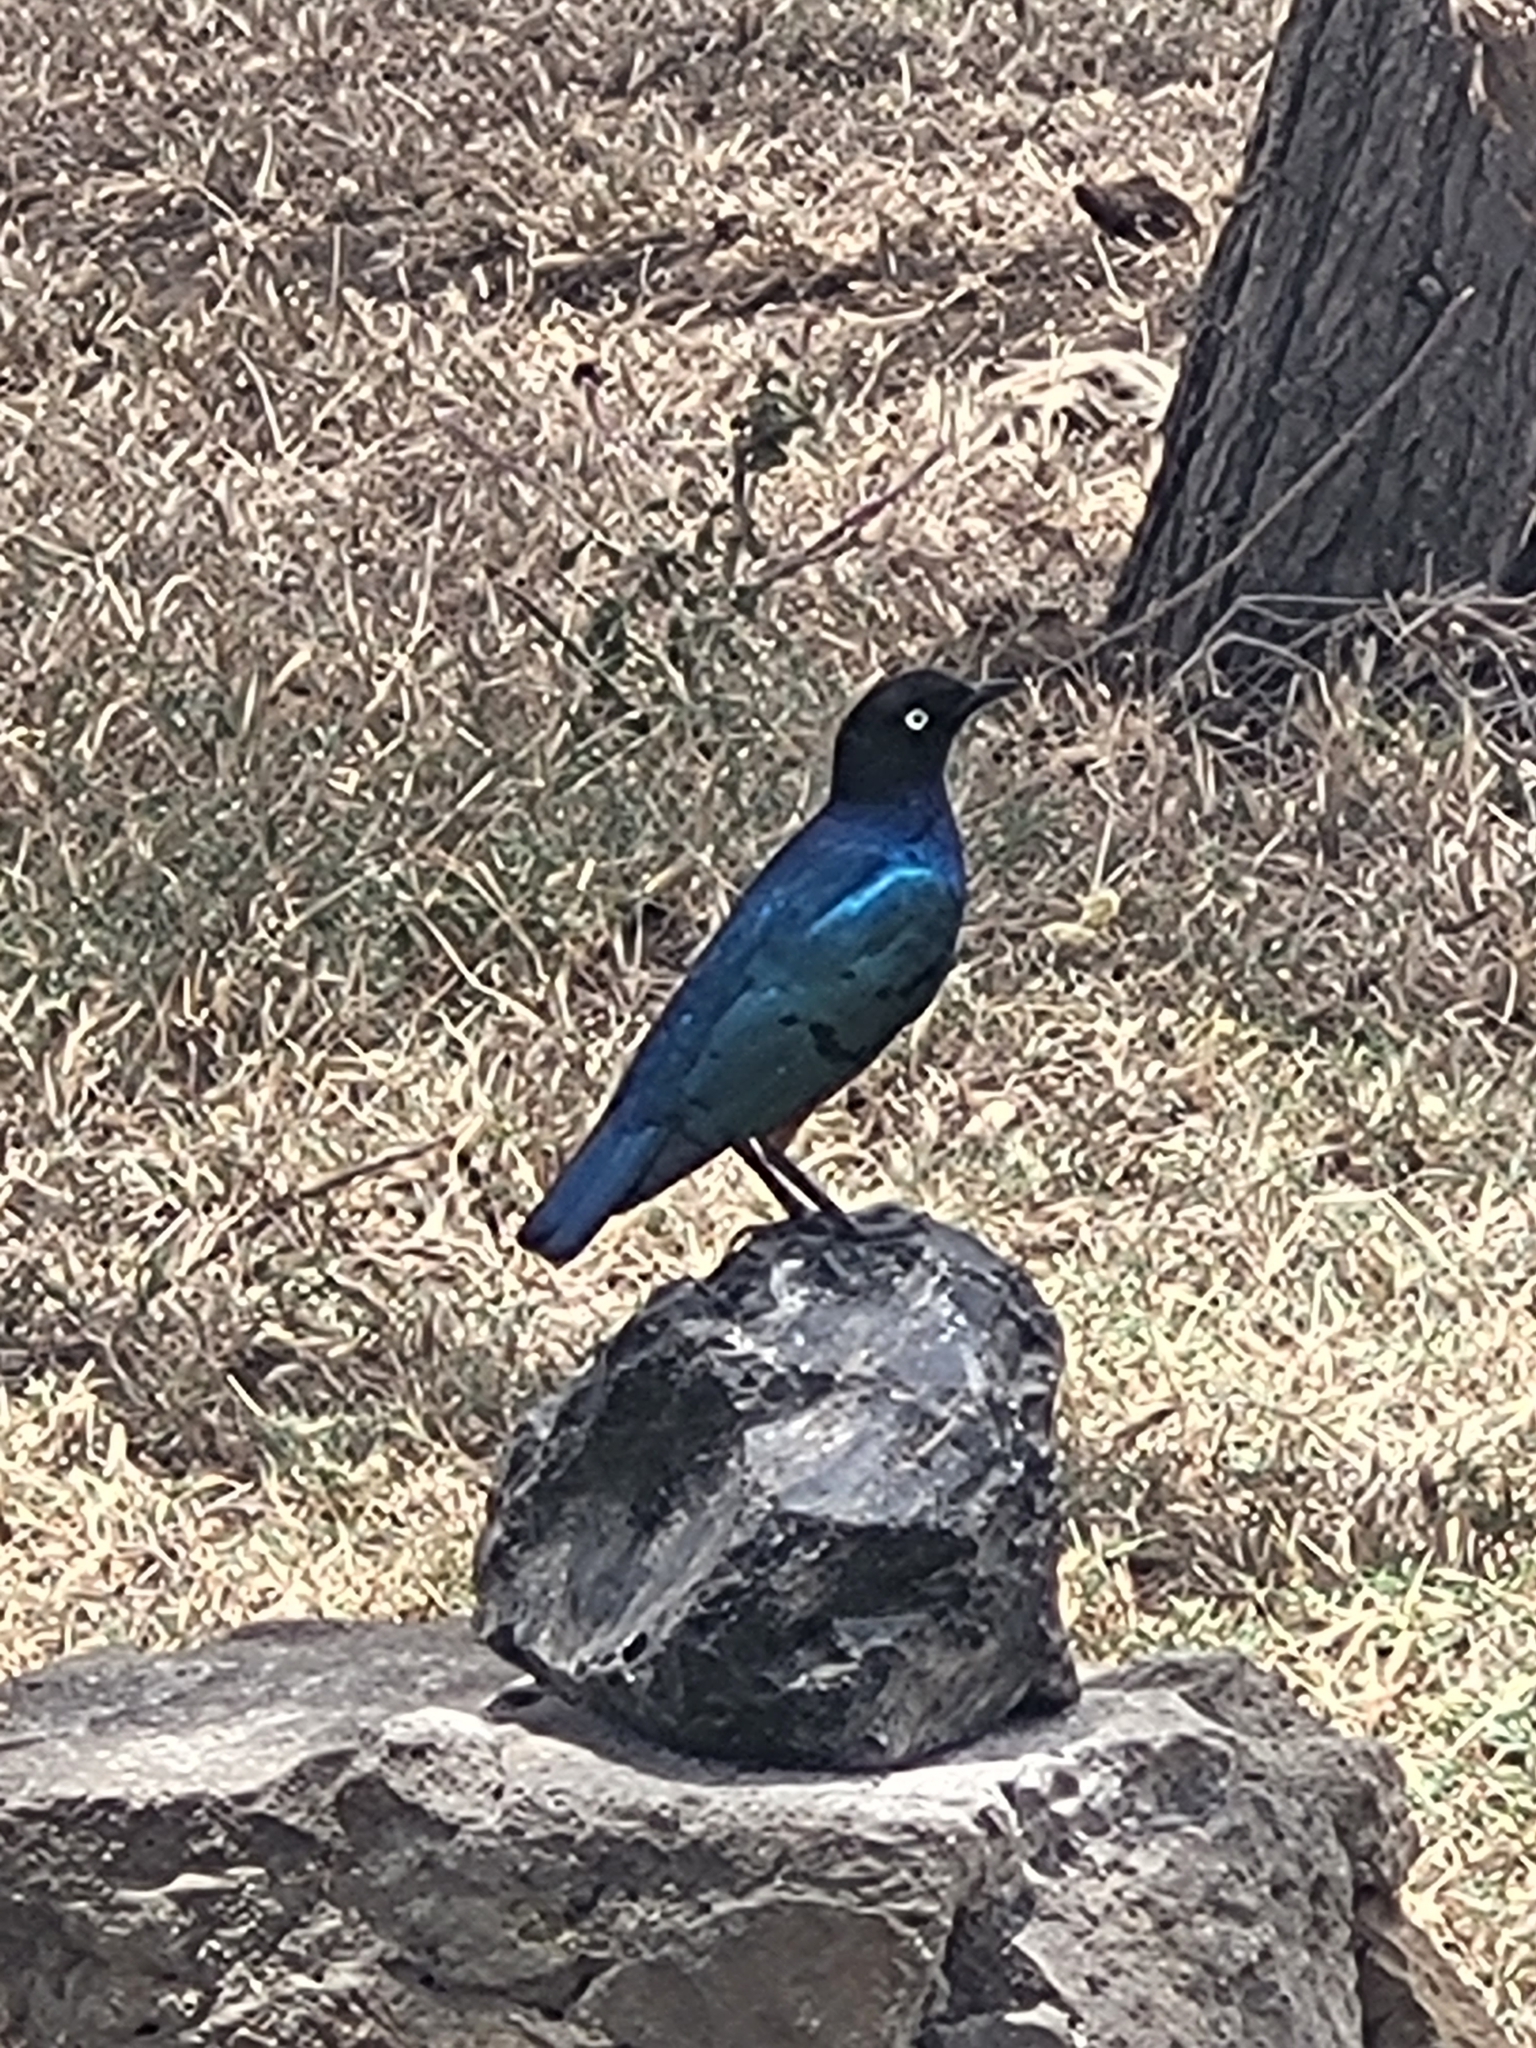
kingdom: Animalia
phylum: Chordata
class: Aves
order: Passeriformes
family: Sturnidae
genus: Lamprotornis
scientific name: Lamprotornis superbus
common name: Superb starling
